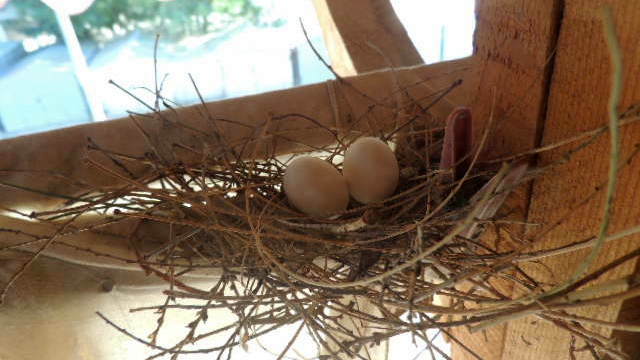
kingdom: Animalia
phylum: Chordata
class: Aves
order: Columbiformes
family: Columbidae
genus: Spilopelia
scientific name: Spilopelia senegalensis
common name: Laughing dove
